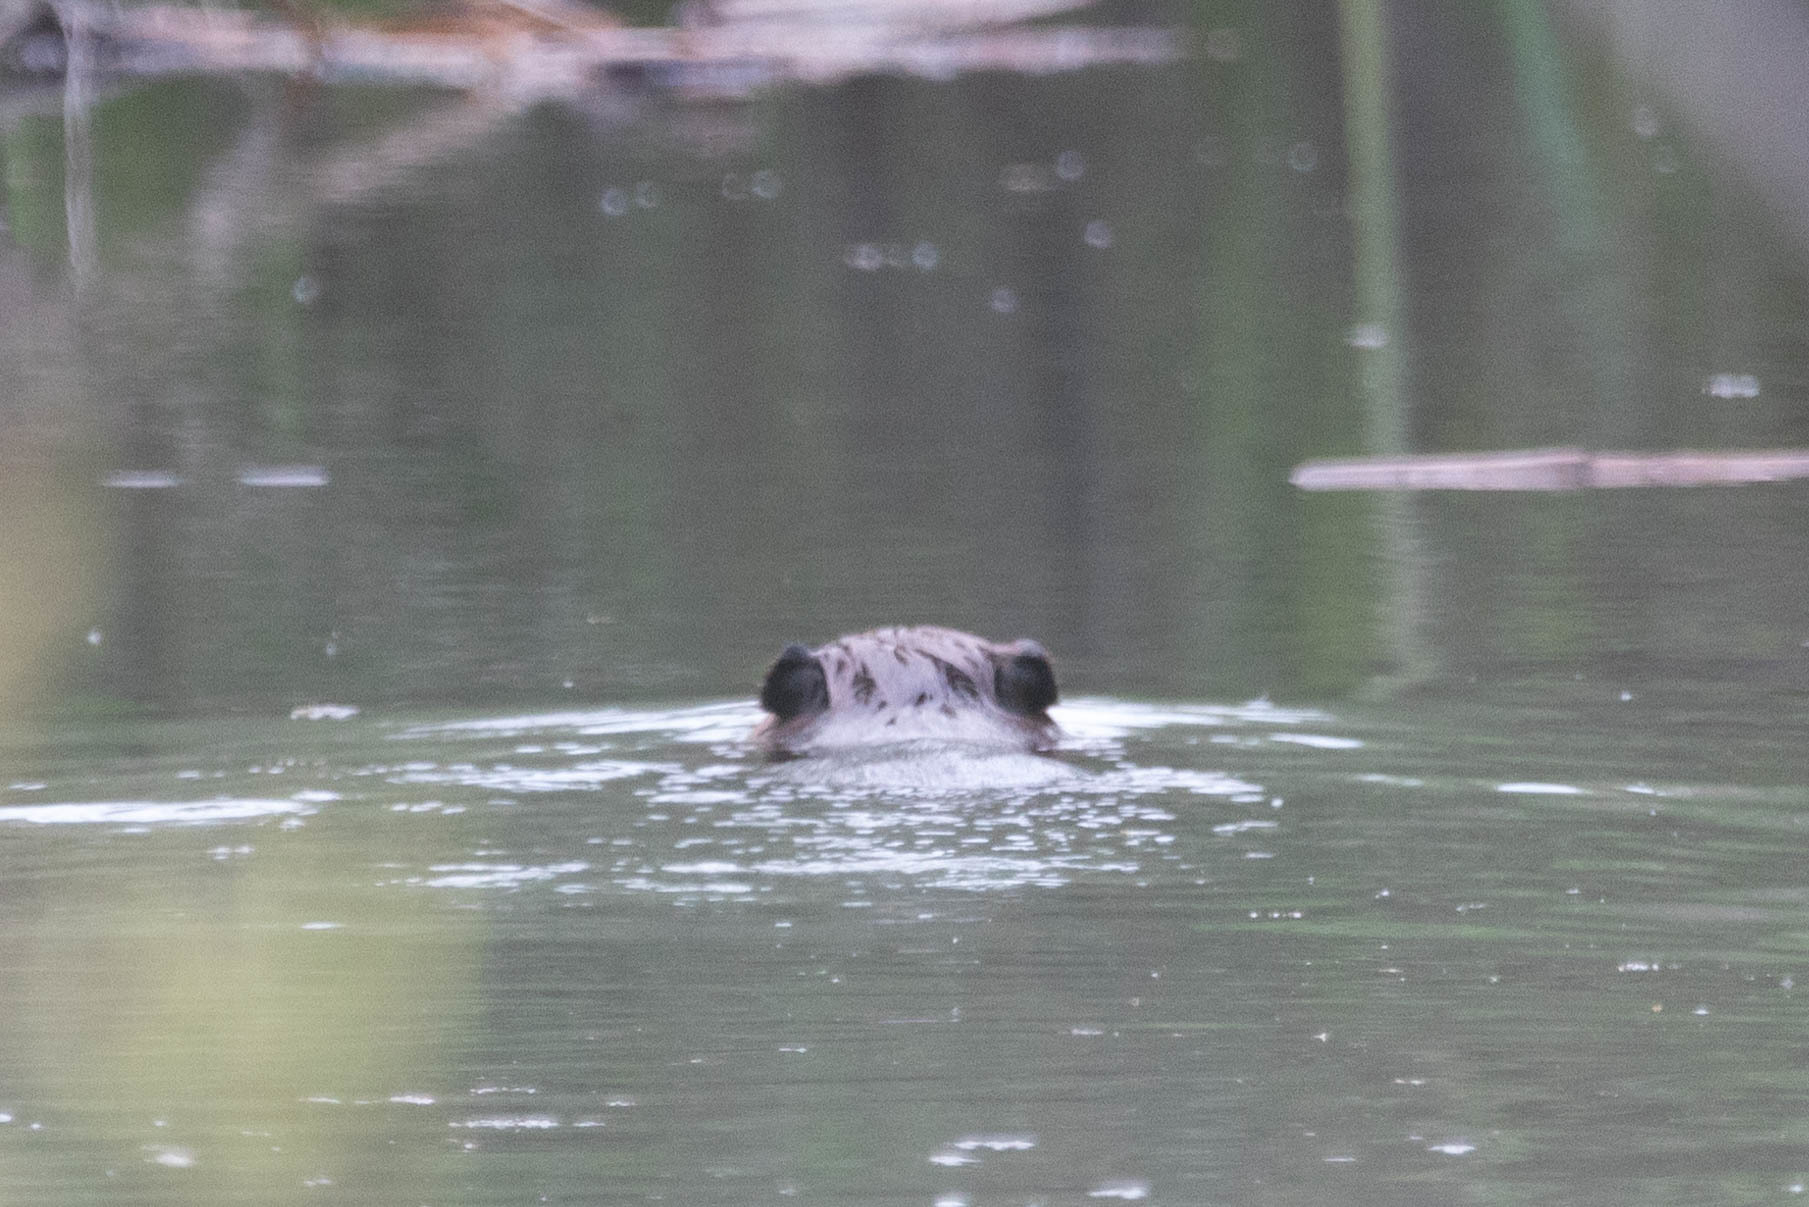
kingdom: Animalia
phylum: Chordata
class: Mammalia
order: Rodentia
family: Castoridae
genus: Castor
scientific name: Castor canadensis
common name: American beaver
